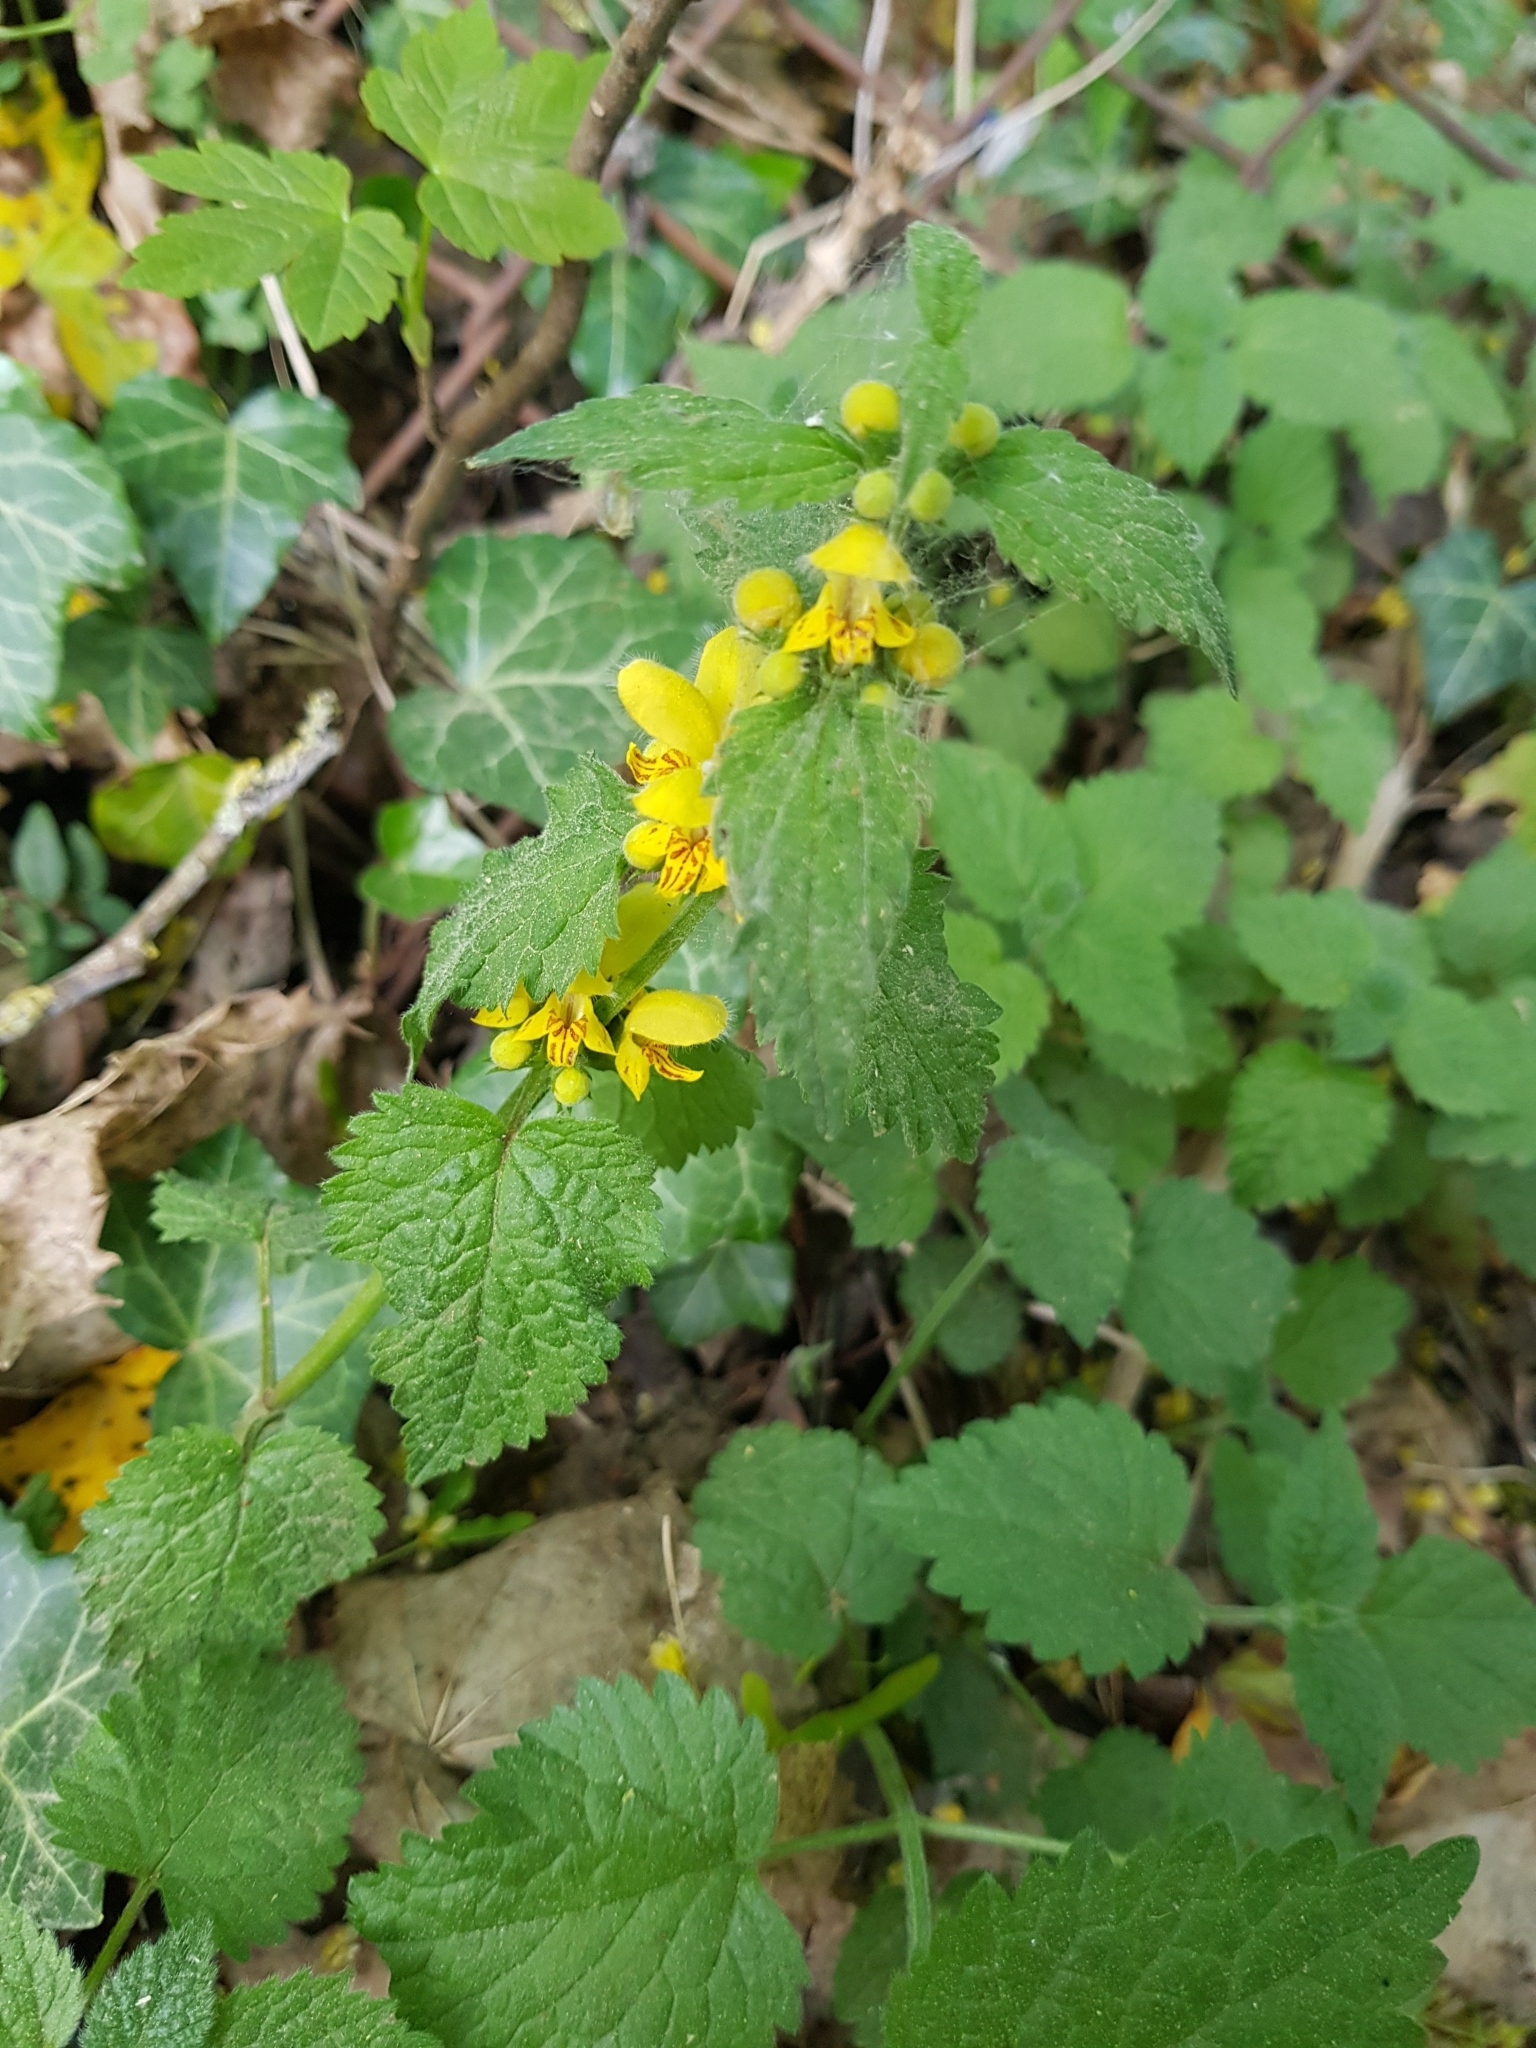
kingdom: Plantae
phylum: Tracheophyta
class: Magnoliopsida
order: Lamiales
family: Lamiaceae
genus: Lamium
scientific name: Lamium galeobdolon
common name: Yellow archangel
